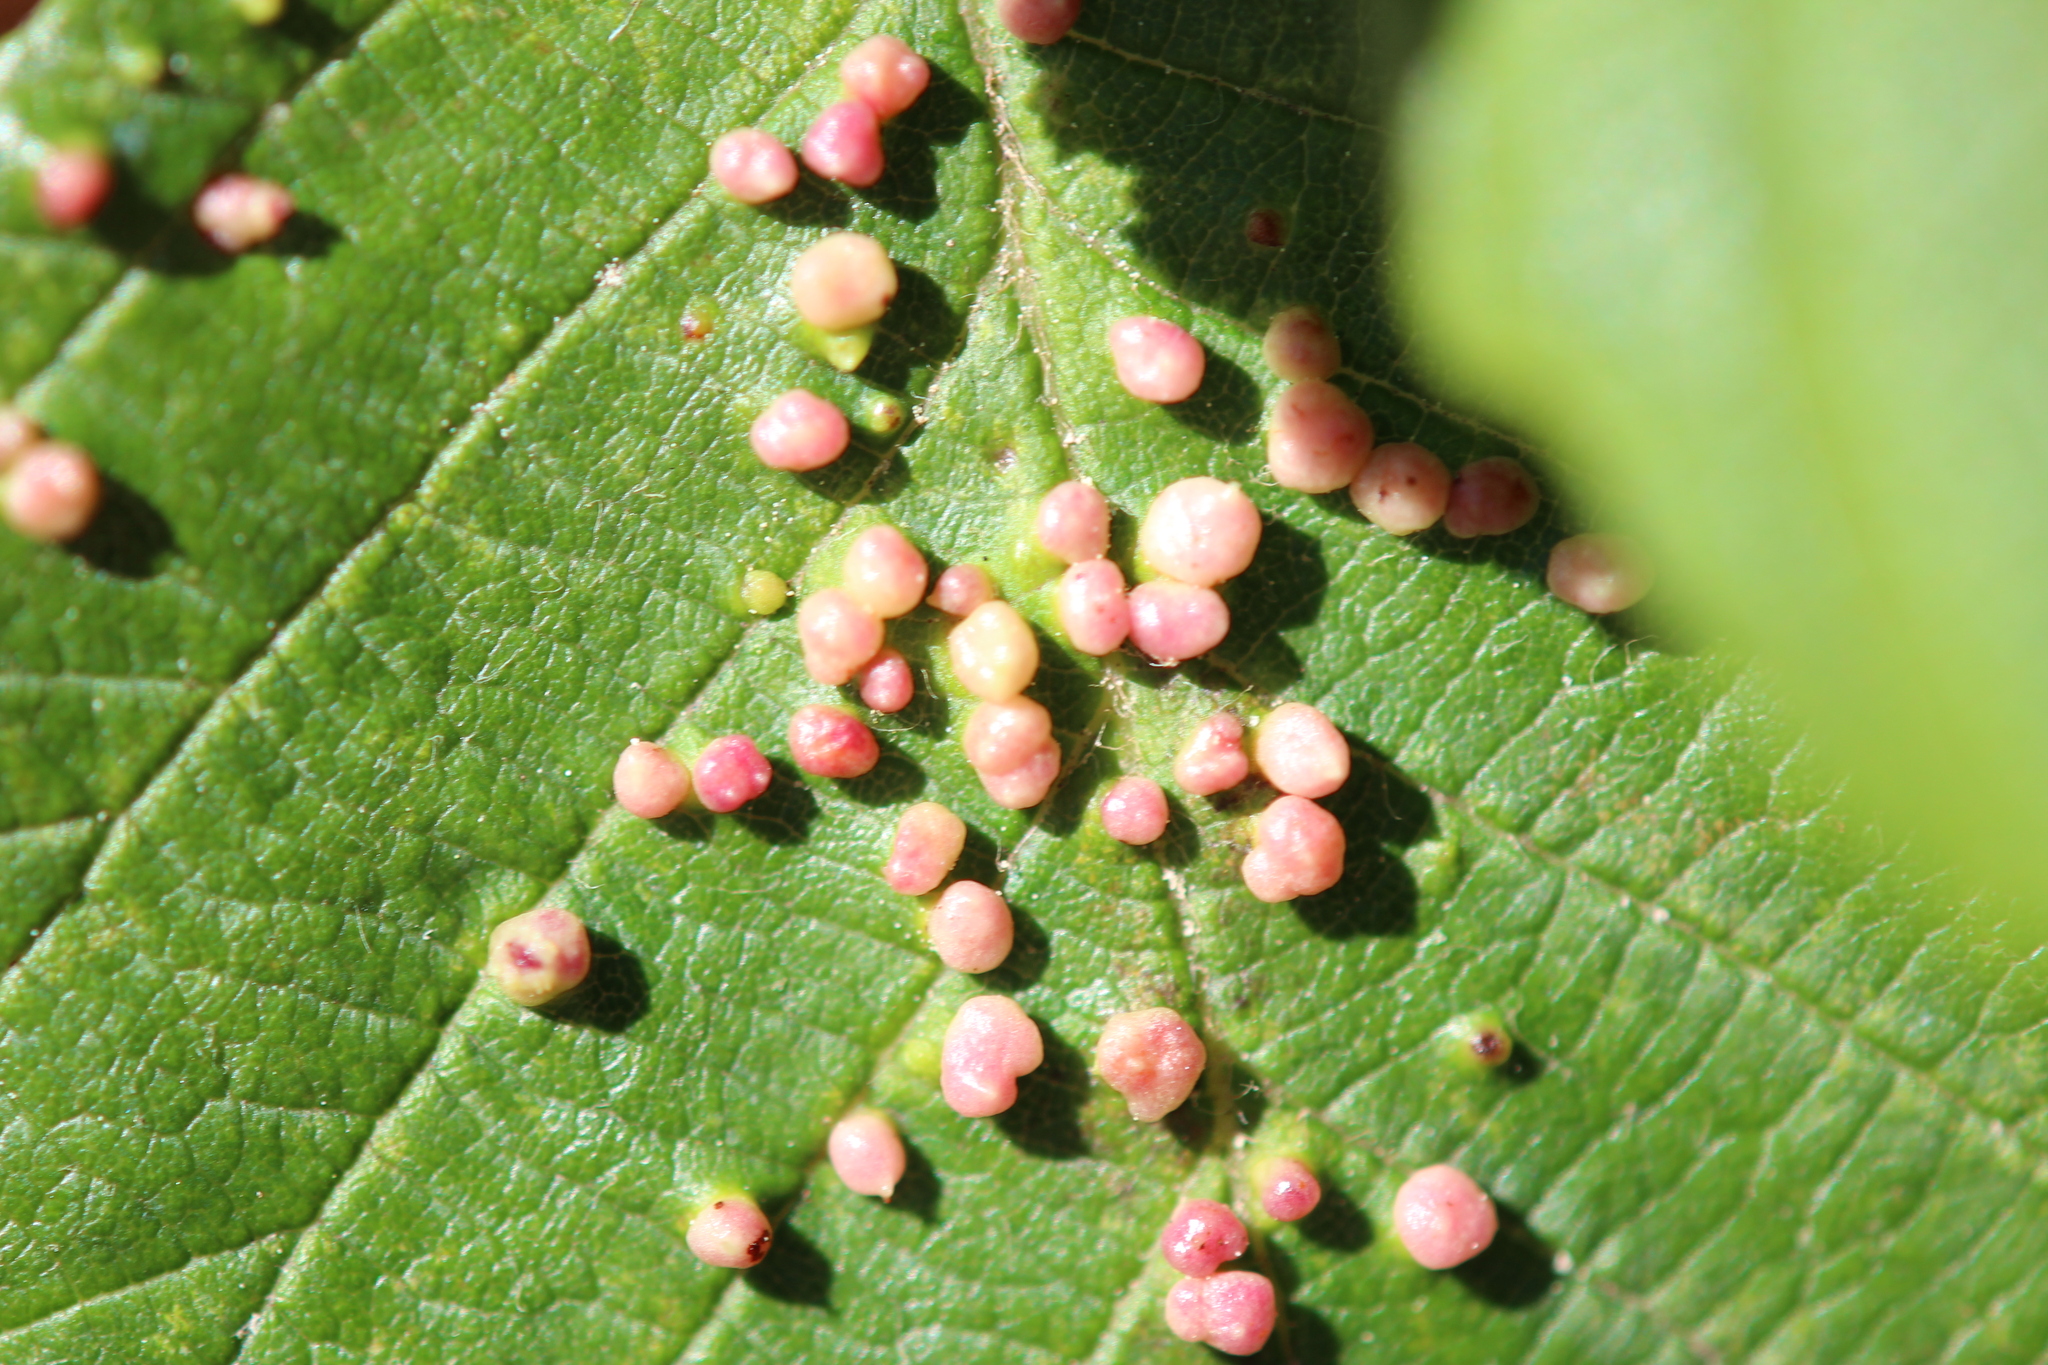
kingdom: Animalia
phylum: Arthropoda
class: Arachnida
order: Trombidiformes
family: Eriophyidae
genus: Eriophyes
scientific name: Eriophyes laevis
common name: Alder leaf gall mite
